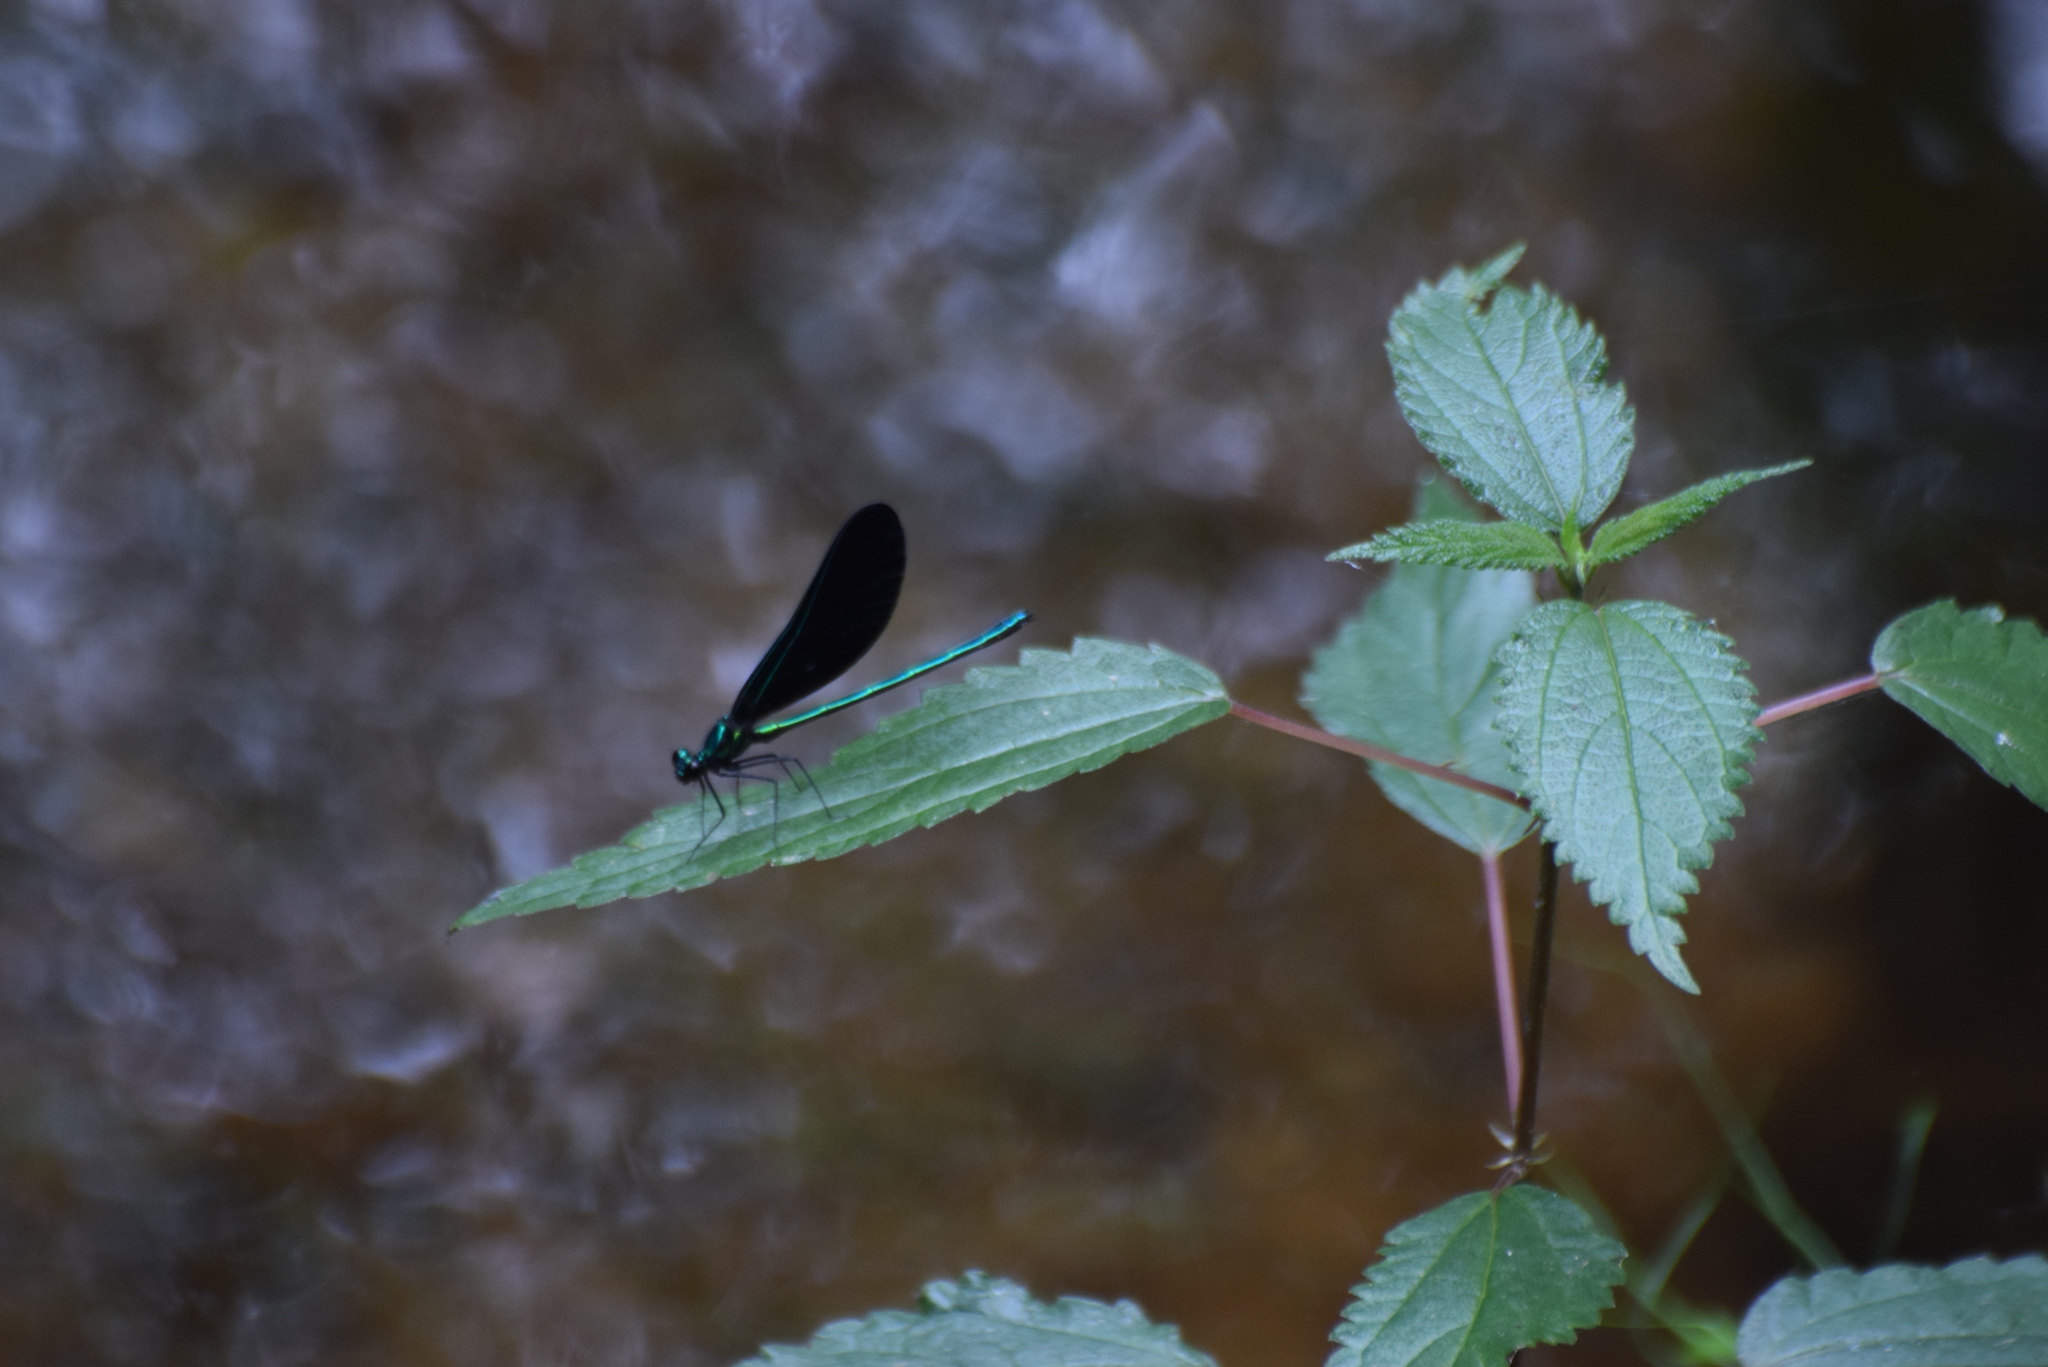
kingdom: Animalia
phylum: Arthropoda
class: Insecta
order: Odonata
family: Calopterygidae
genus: Calopteryx
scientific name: Calopteryx maculata
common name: Ebony jewelwing
